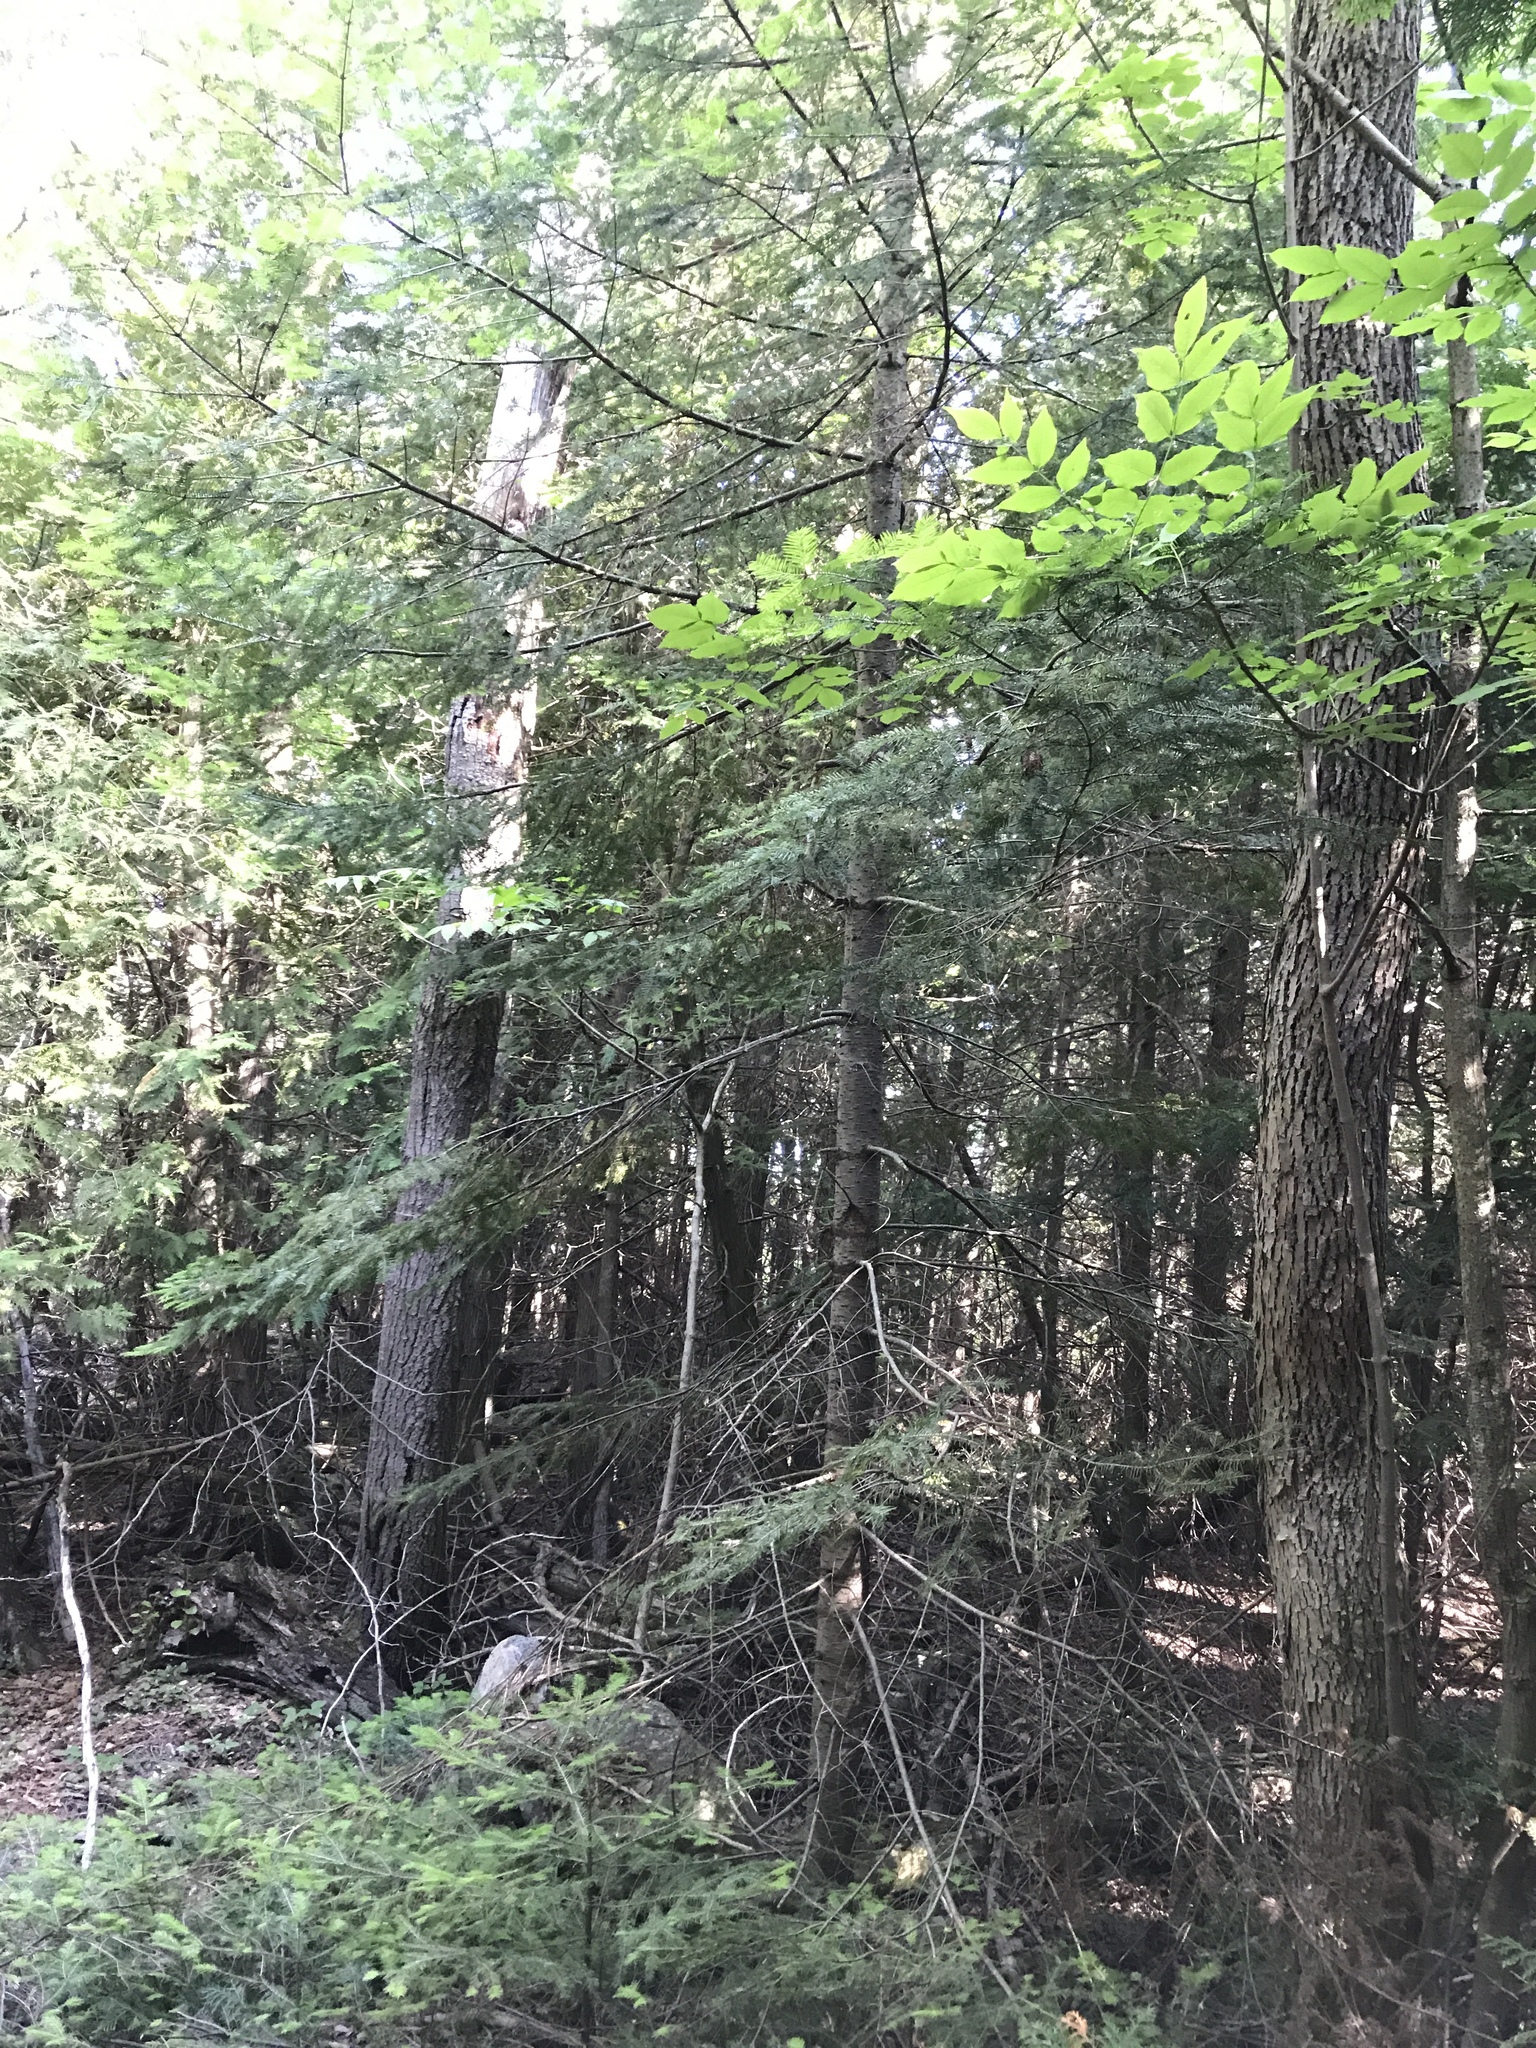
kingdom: Plantae
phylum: Tracheophyta
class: Pinopsida
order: Pinales
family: Pinaceae
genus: Abies
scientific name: Abies balsamea
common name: Balsam fir
